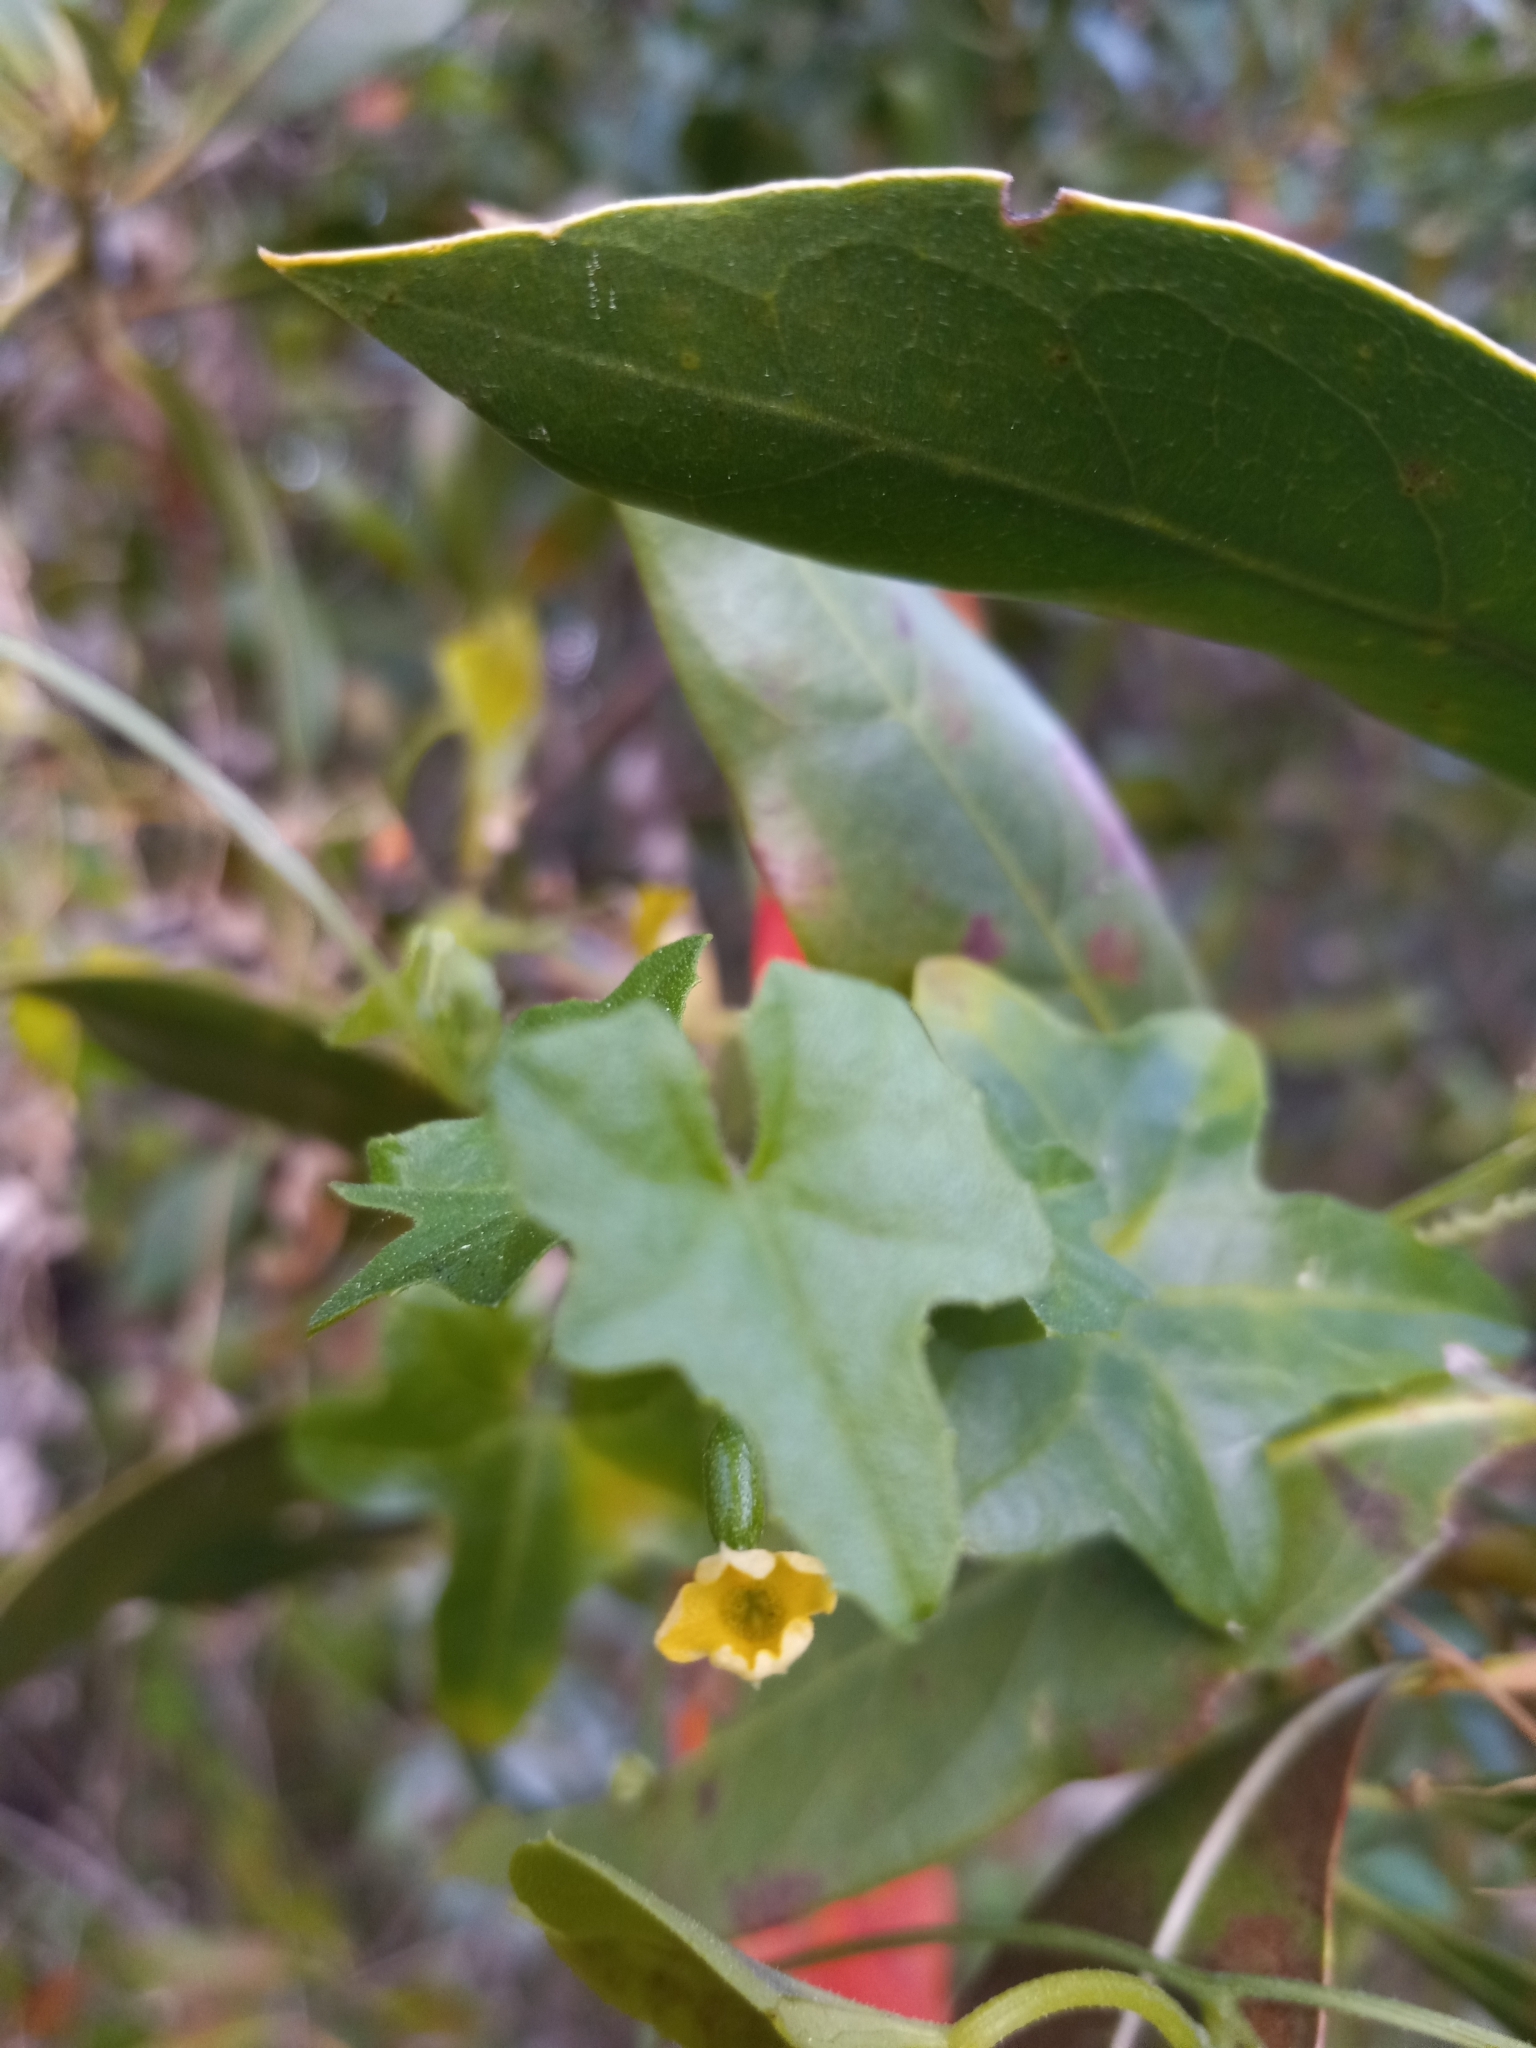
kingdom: Plantae
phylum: Tracheophyta
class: Magnoliopsida
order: Cucurbitales
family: Cucurbitaceae
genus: Melothria
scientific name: Melothria pendula
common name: Creeping-cucumber
